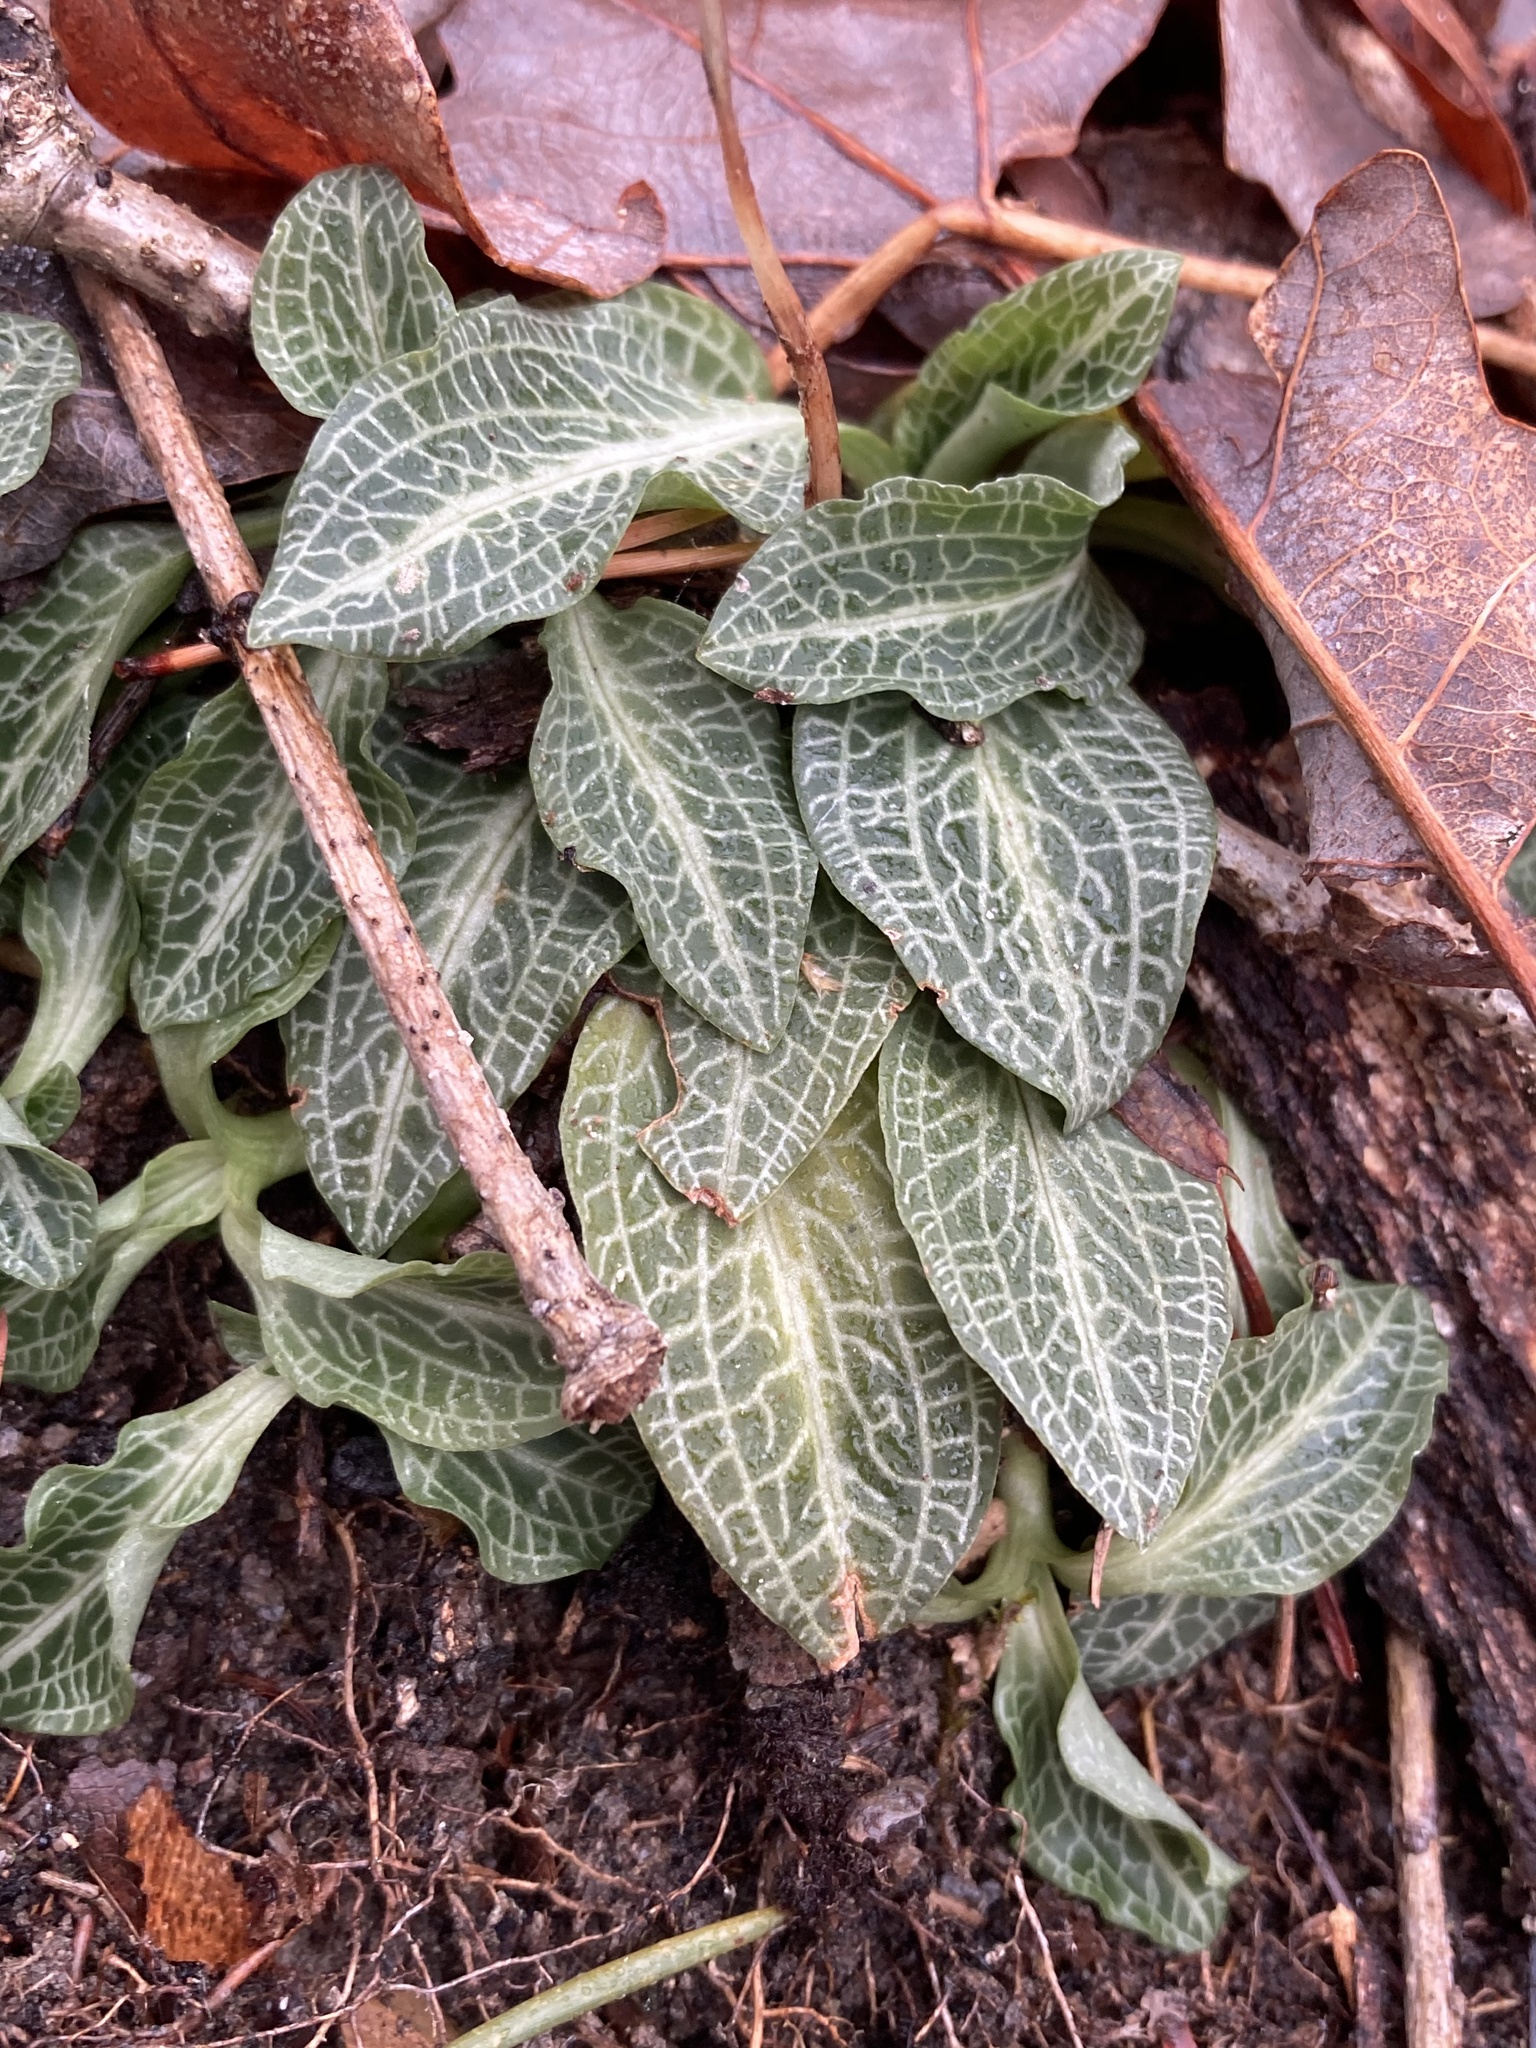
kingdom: Plantae
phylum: Tracheophyta
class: Liliopsida
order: Asparagales
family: Orchidaceae
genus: Goodyera
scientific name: Goodyera pubescens
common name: Downy rattlesnake-plantain
